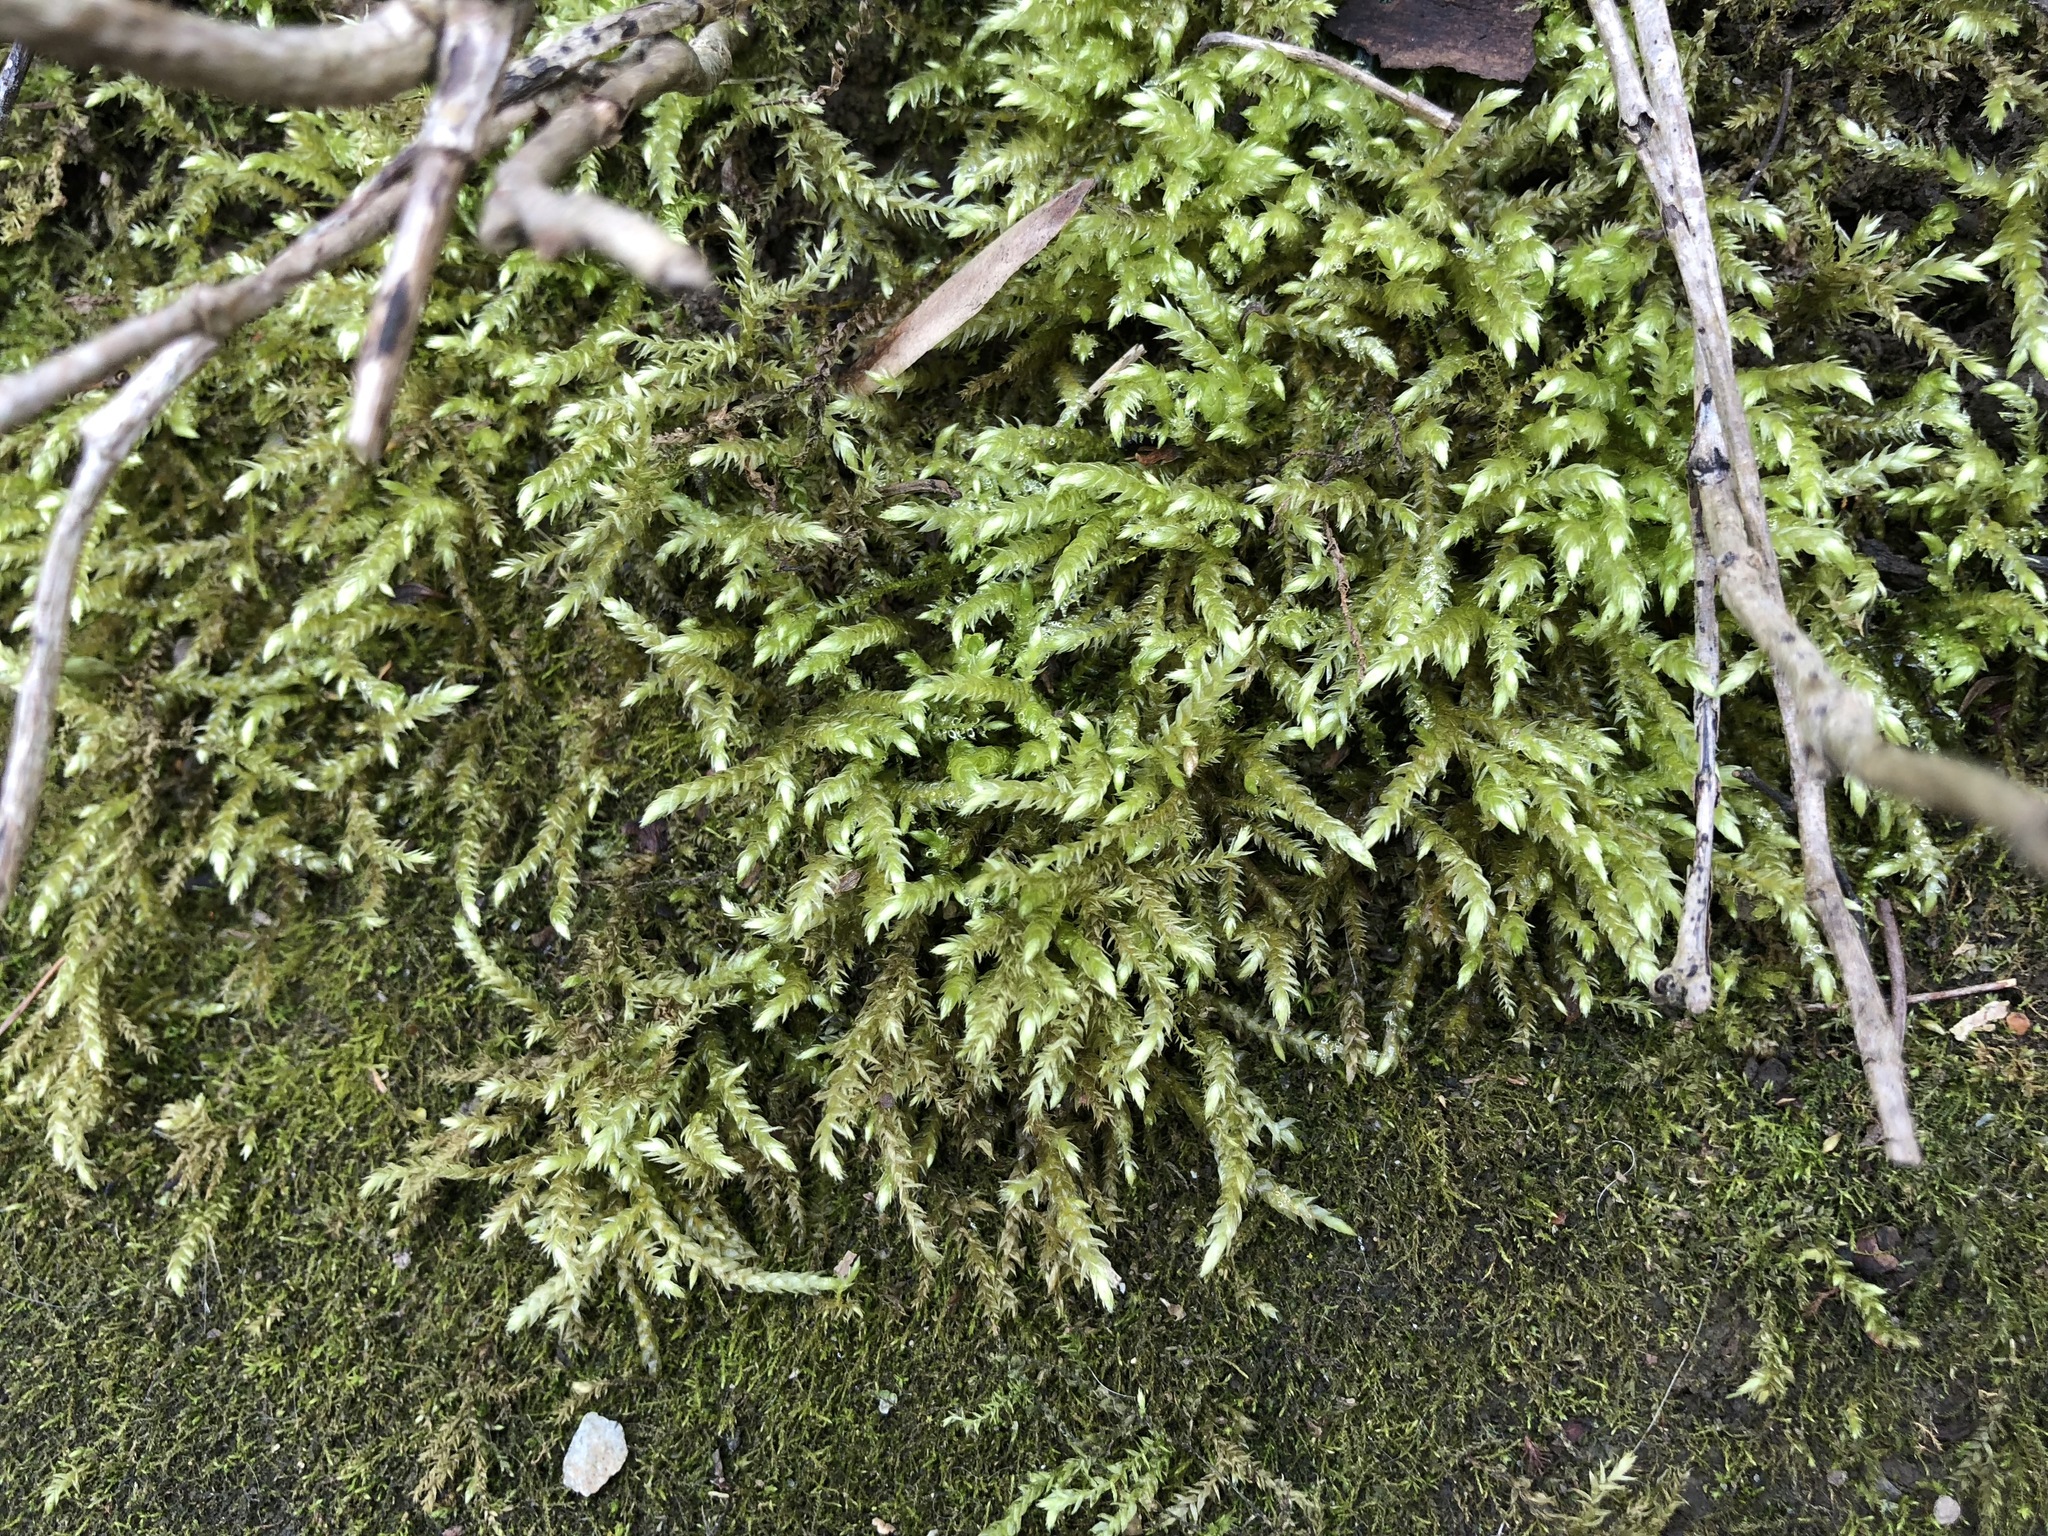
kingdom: Plantae
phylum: Bryophyta
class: Bryopsida
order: Hypnales
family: Hypnaceae
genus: Hypnum
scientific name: Hypnum cupressiforme
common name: Cypress-leaved plait-moss
